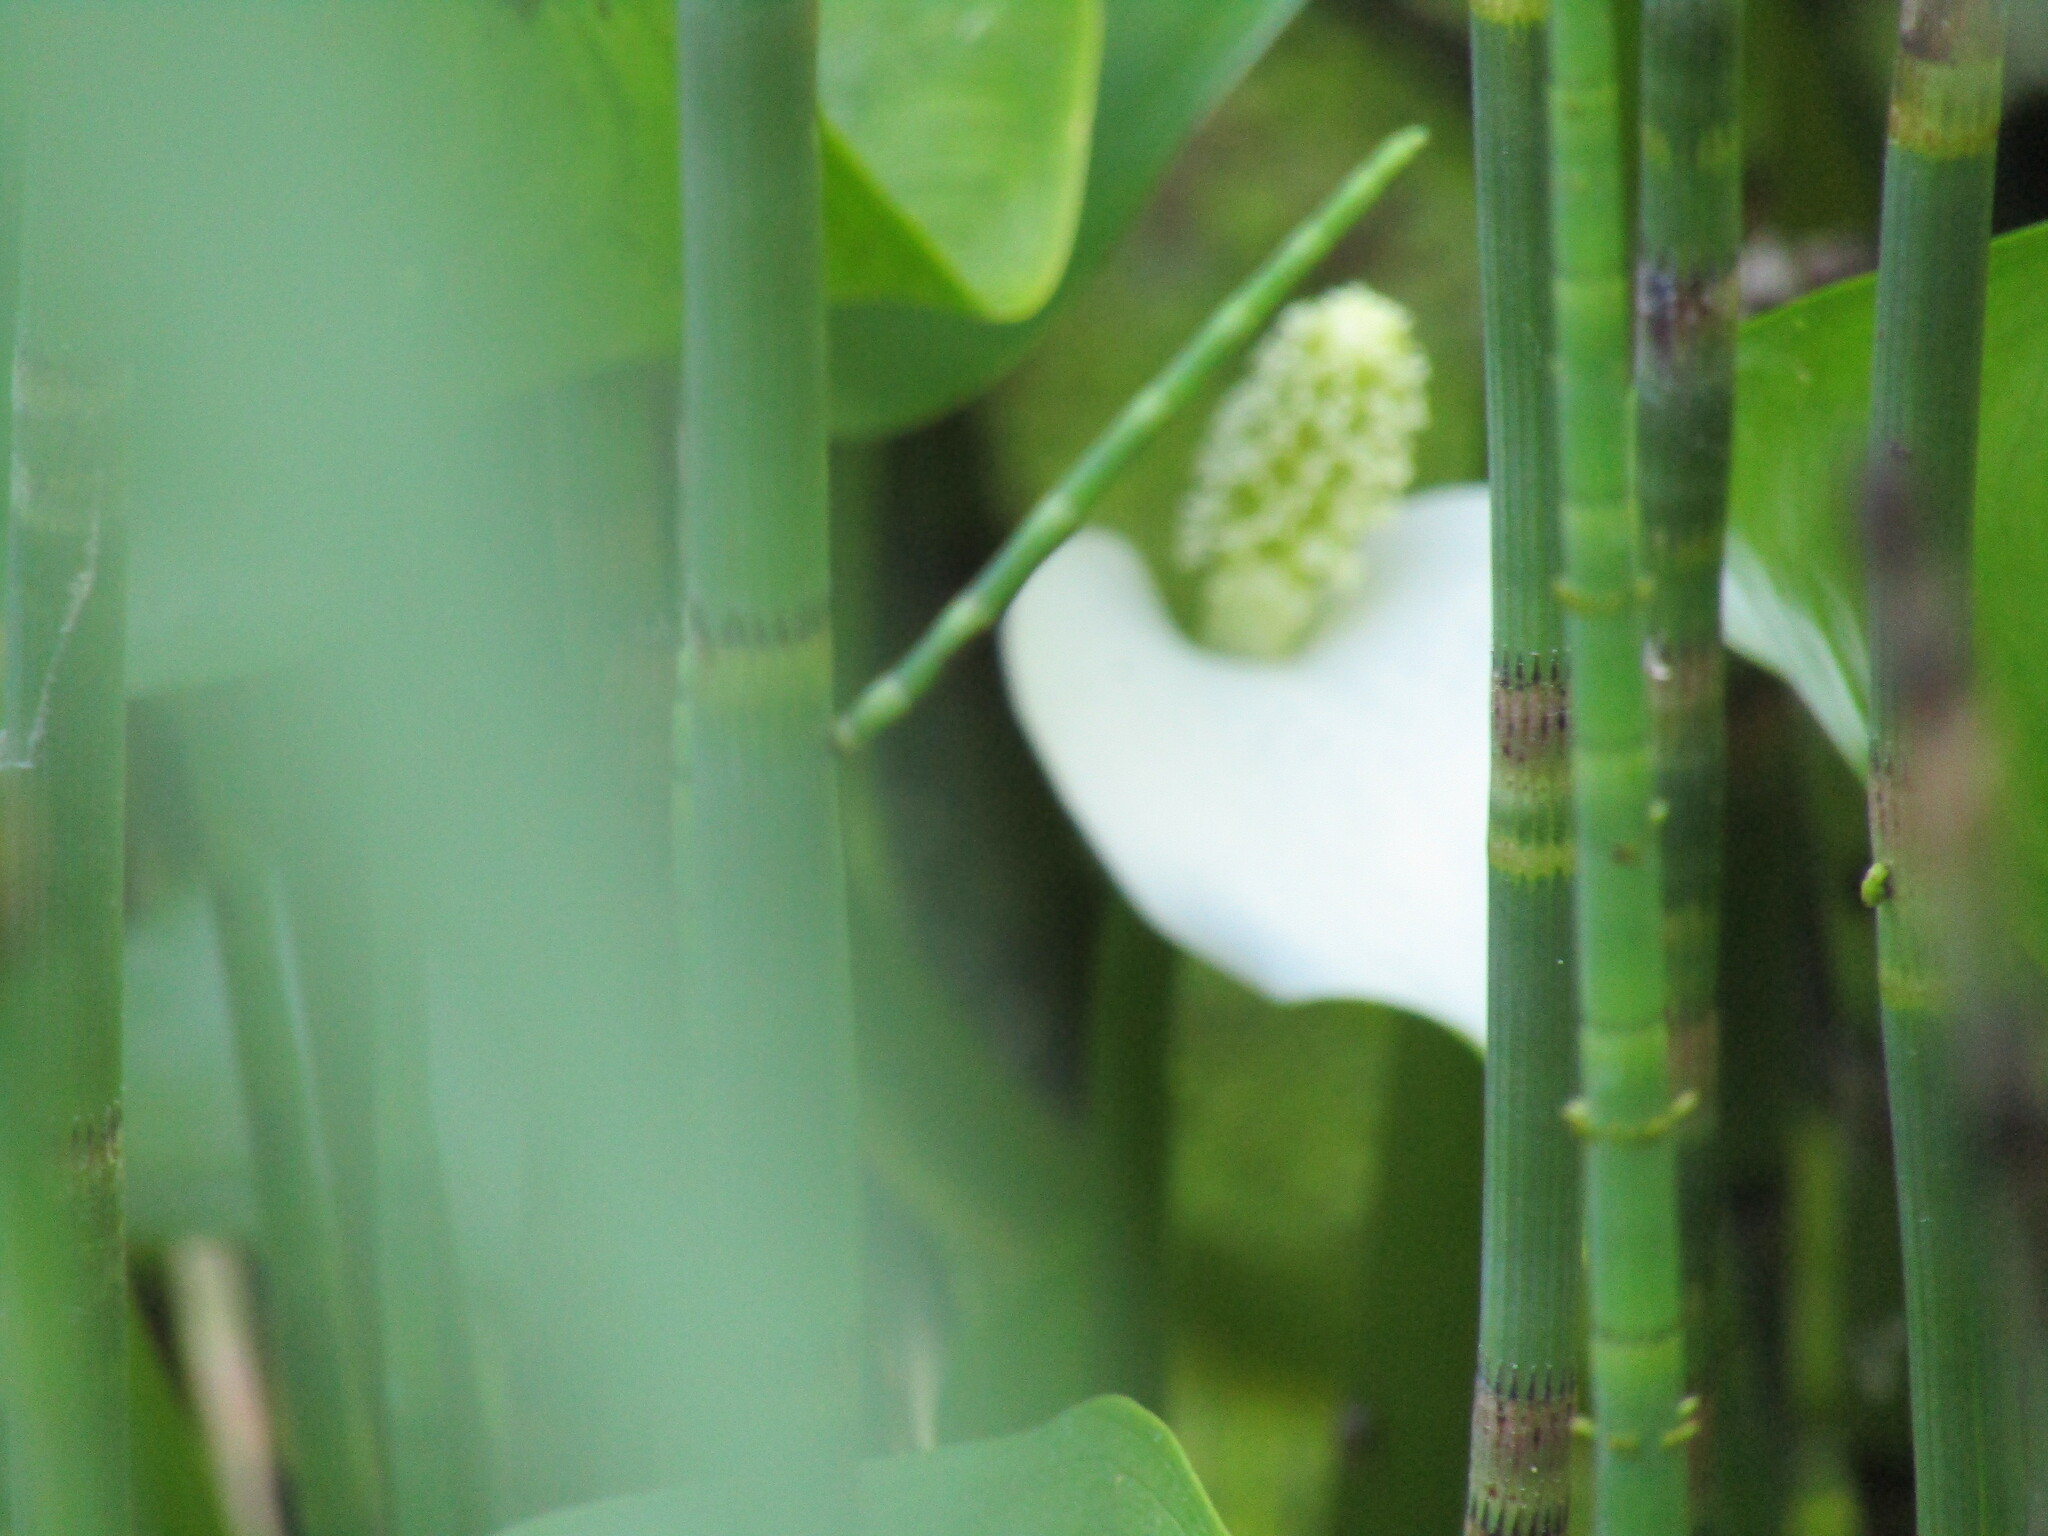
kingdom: Plantae
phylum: Tracheophyta
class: Liliopsida
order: Alismatales
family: Araceae
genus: Calla
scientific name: Calla palustris
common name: Bog arum
